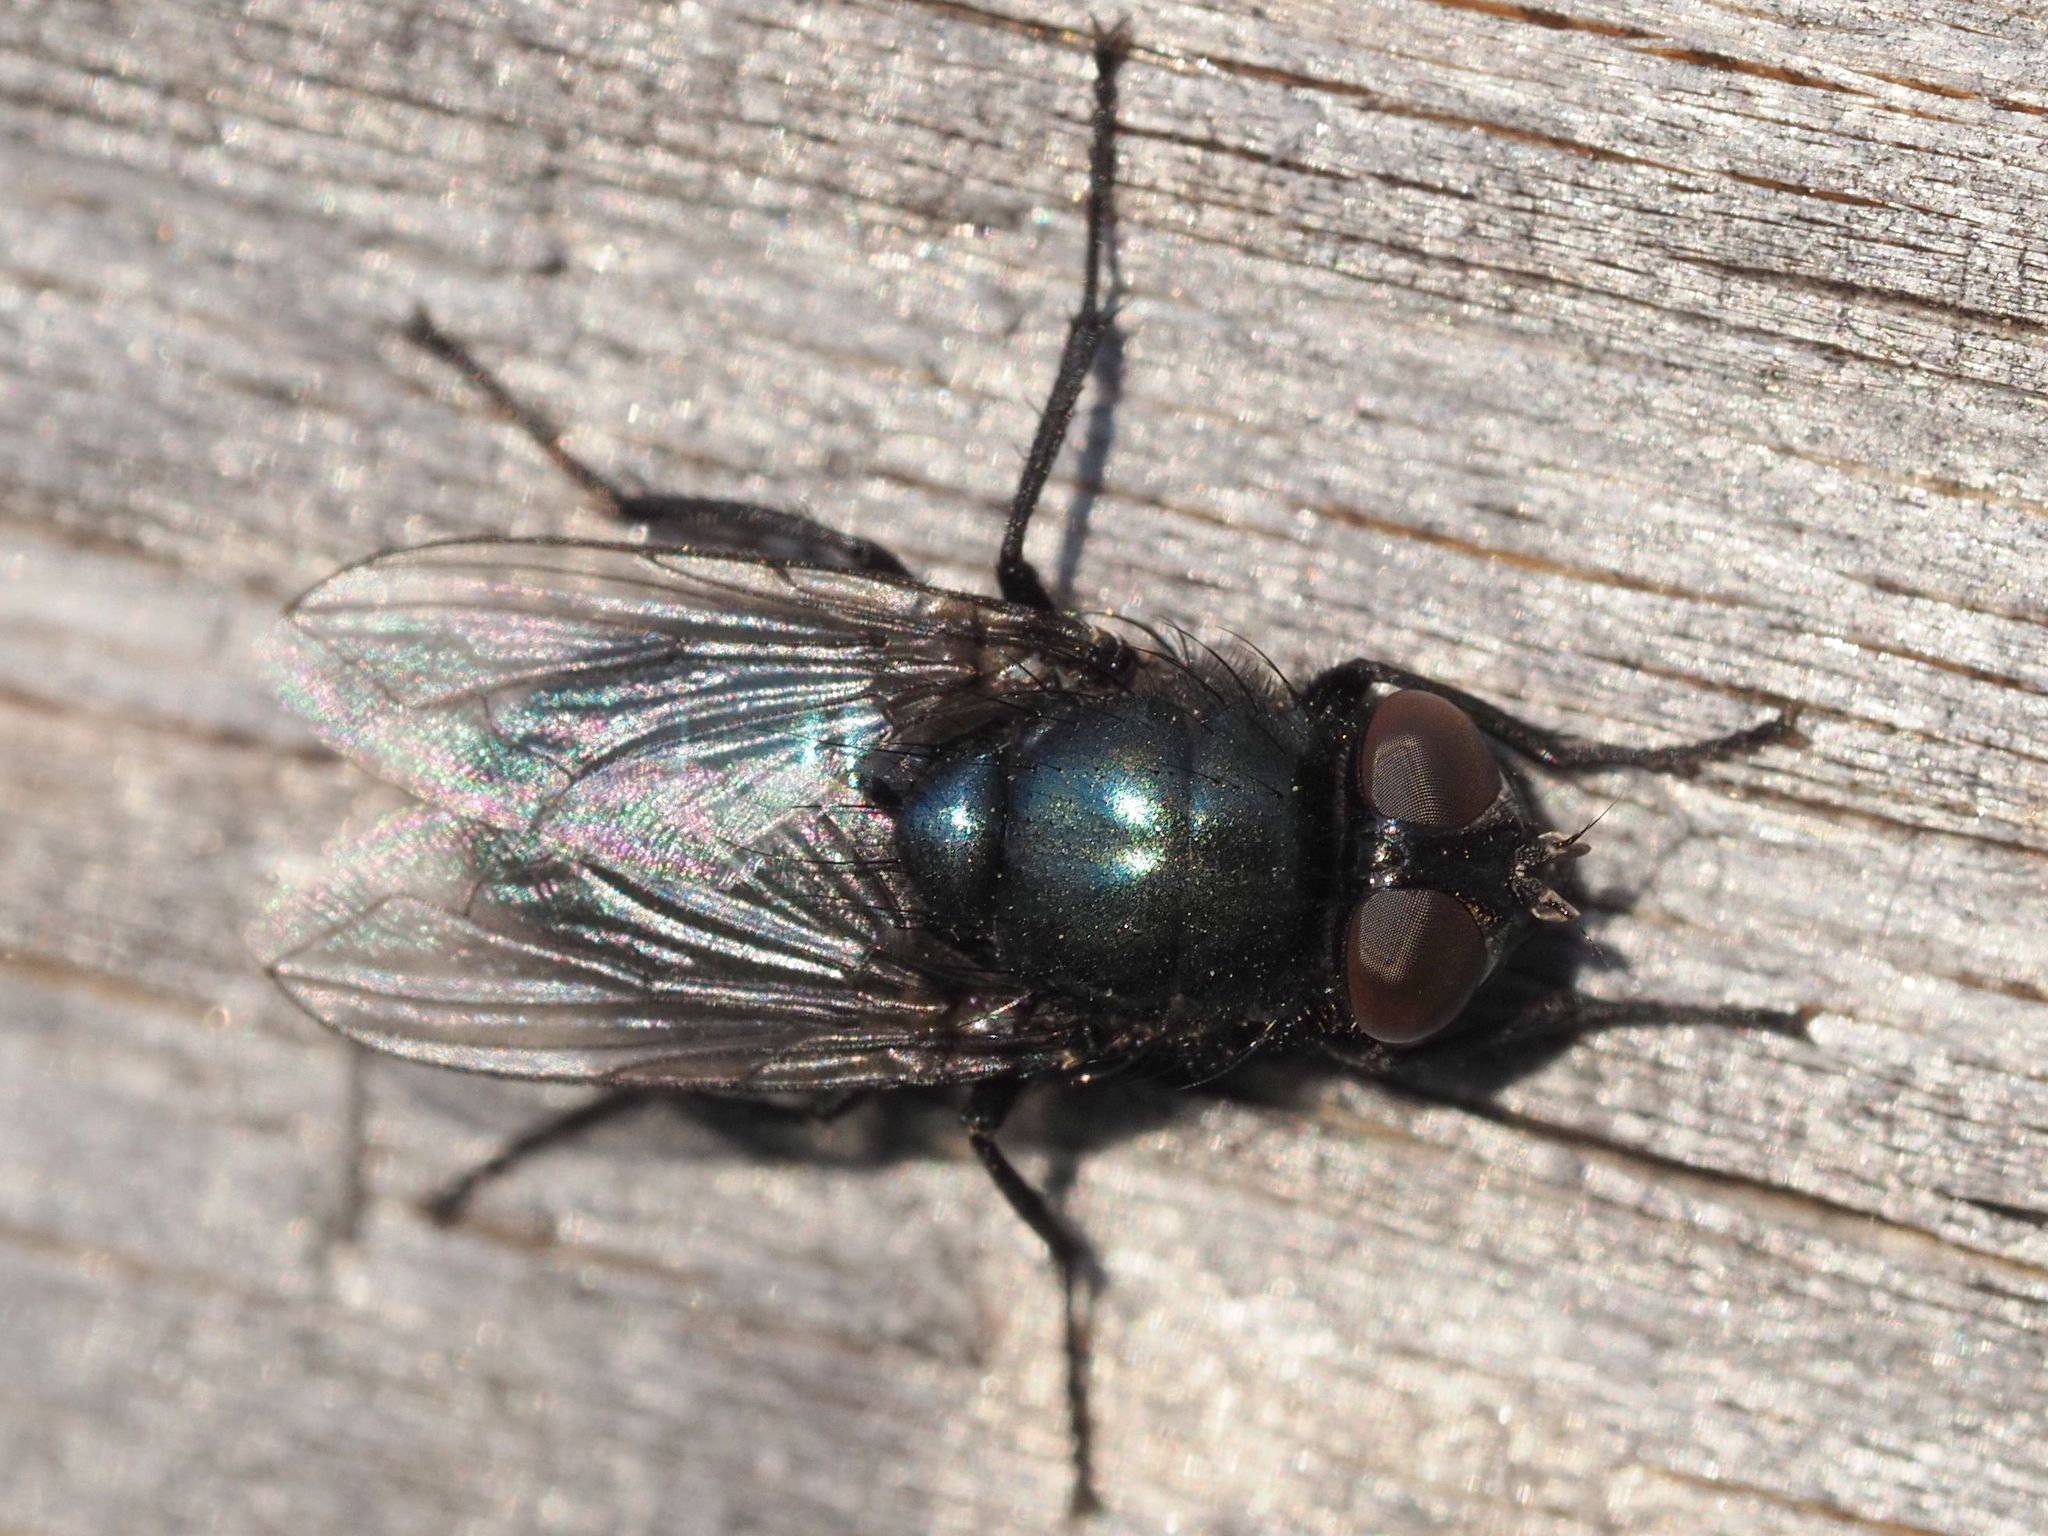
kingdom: Animalia
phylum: Arthropoda
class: Insecta
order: Diptera
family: Calliphoridae
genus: Protophormia
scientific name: Protophormia terraenovae
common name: Blackbottle
